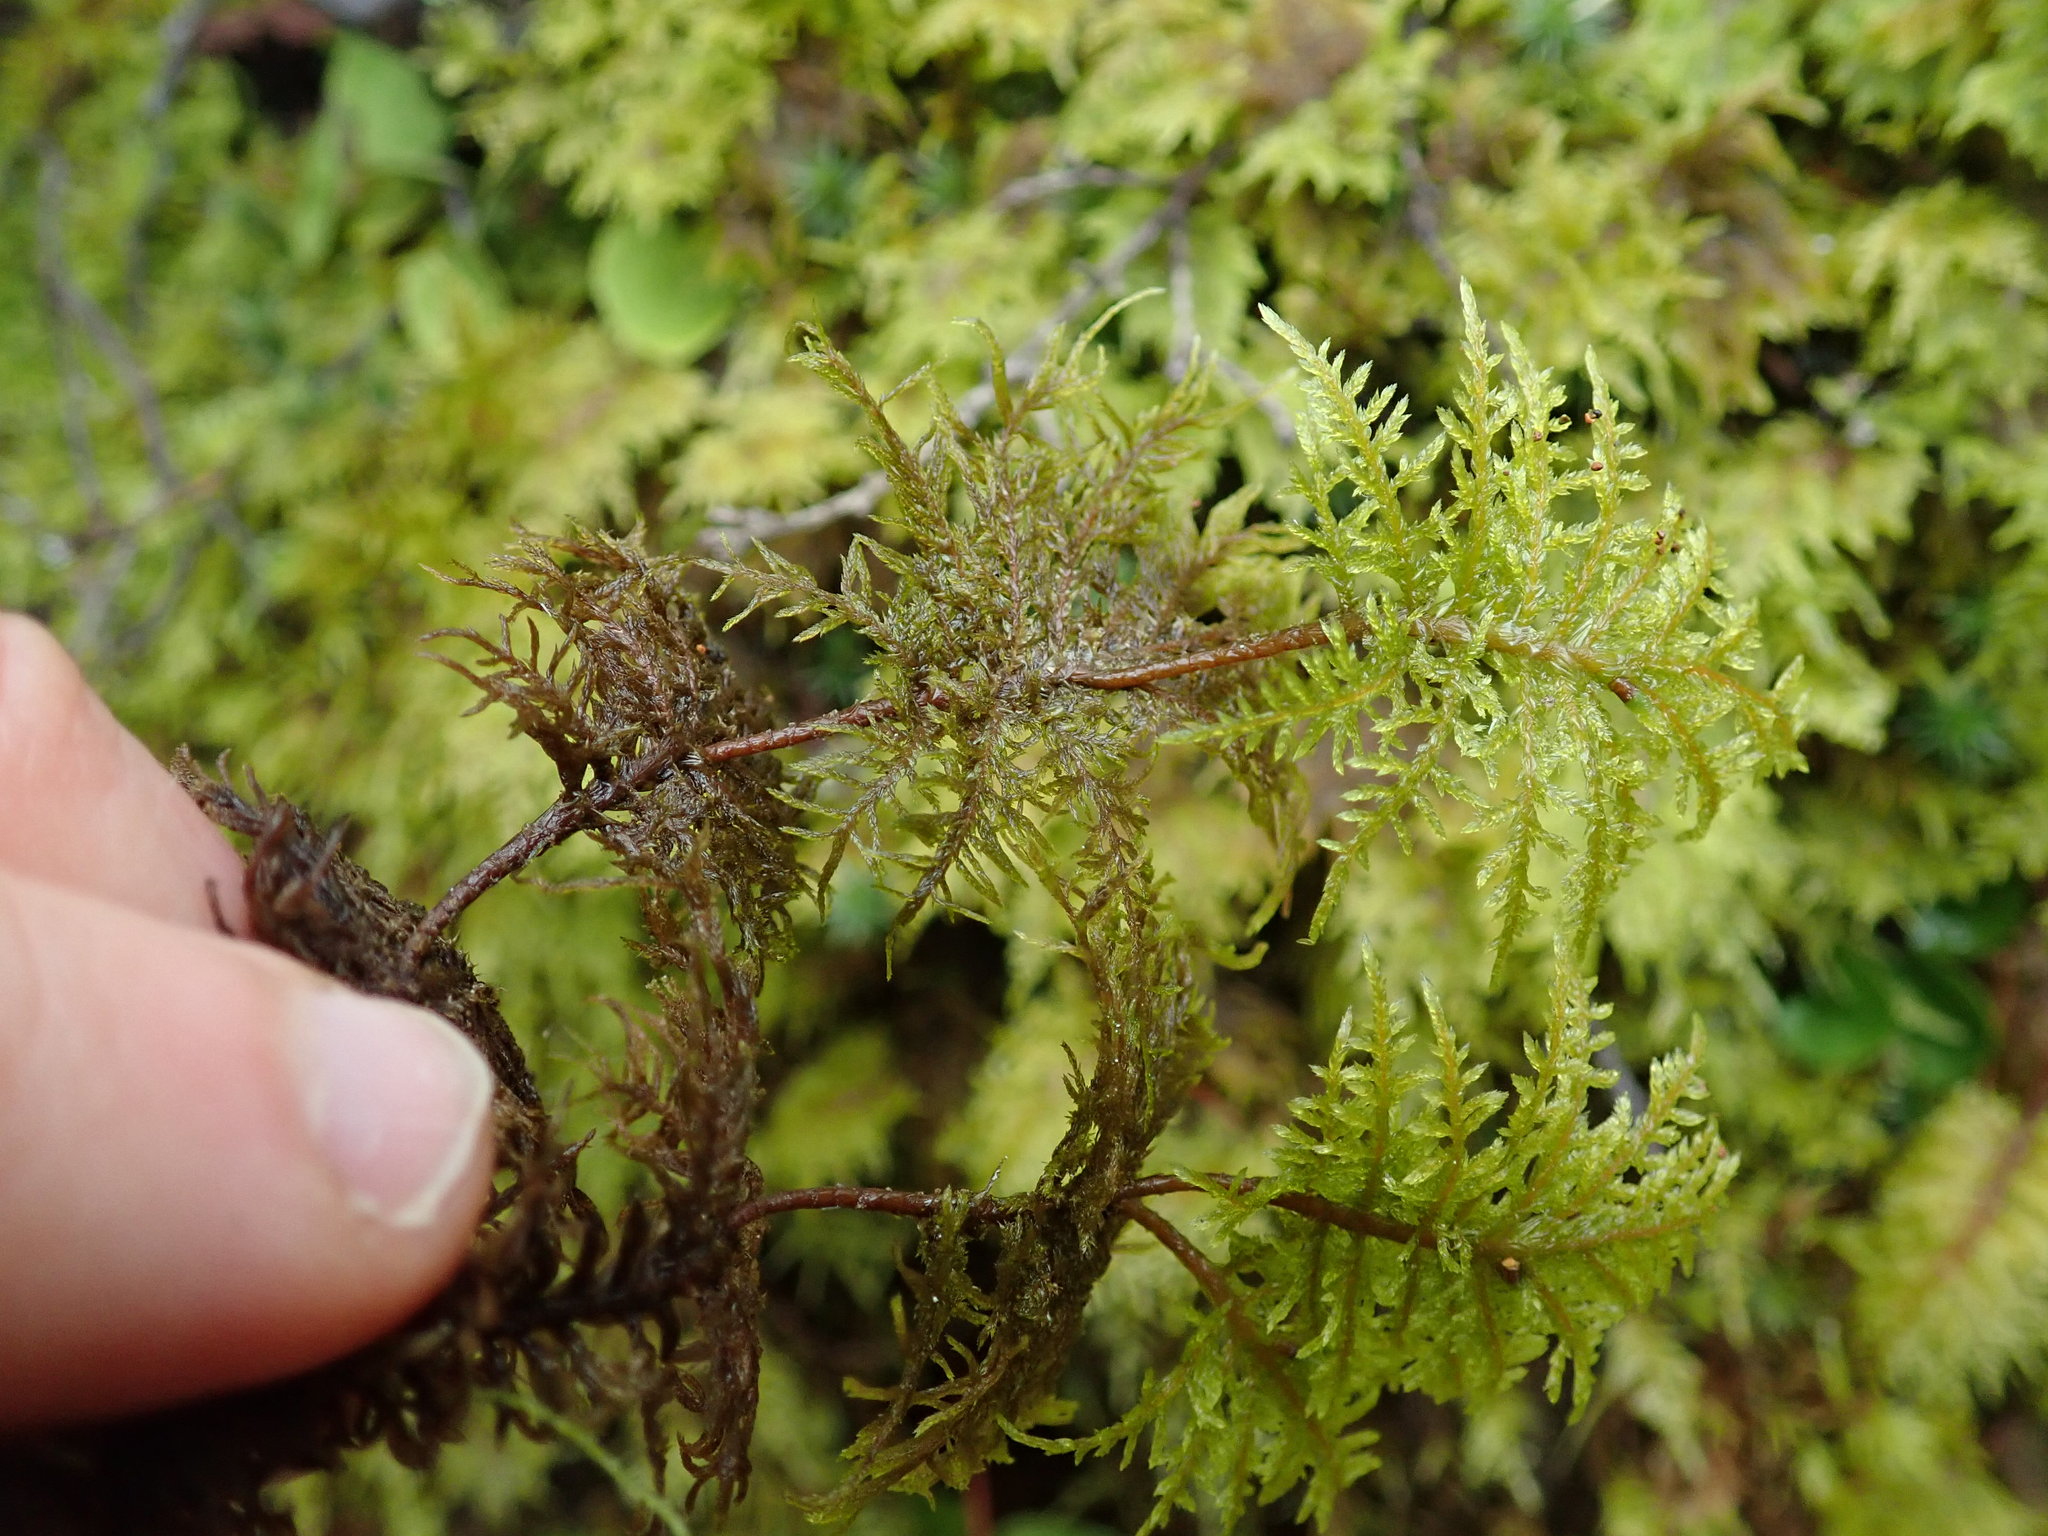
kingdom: Plantae
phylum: Bryophyta
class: Bryopsida
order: Hypnales
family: Hylocomiaceae
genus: Hylocomium
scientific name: Hylocomium splendens
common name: Stairstep moss
